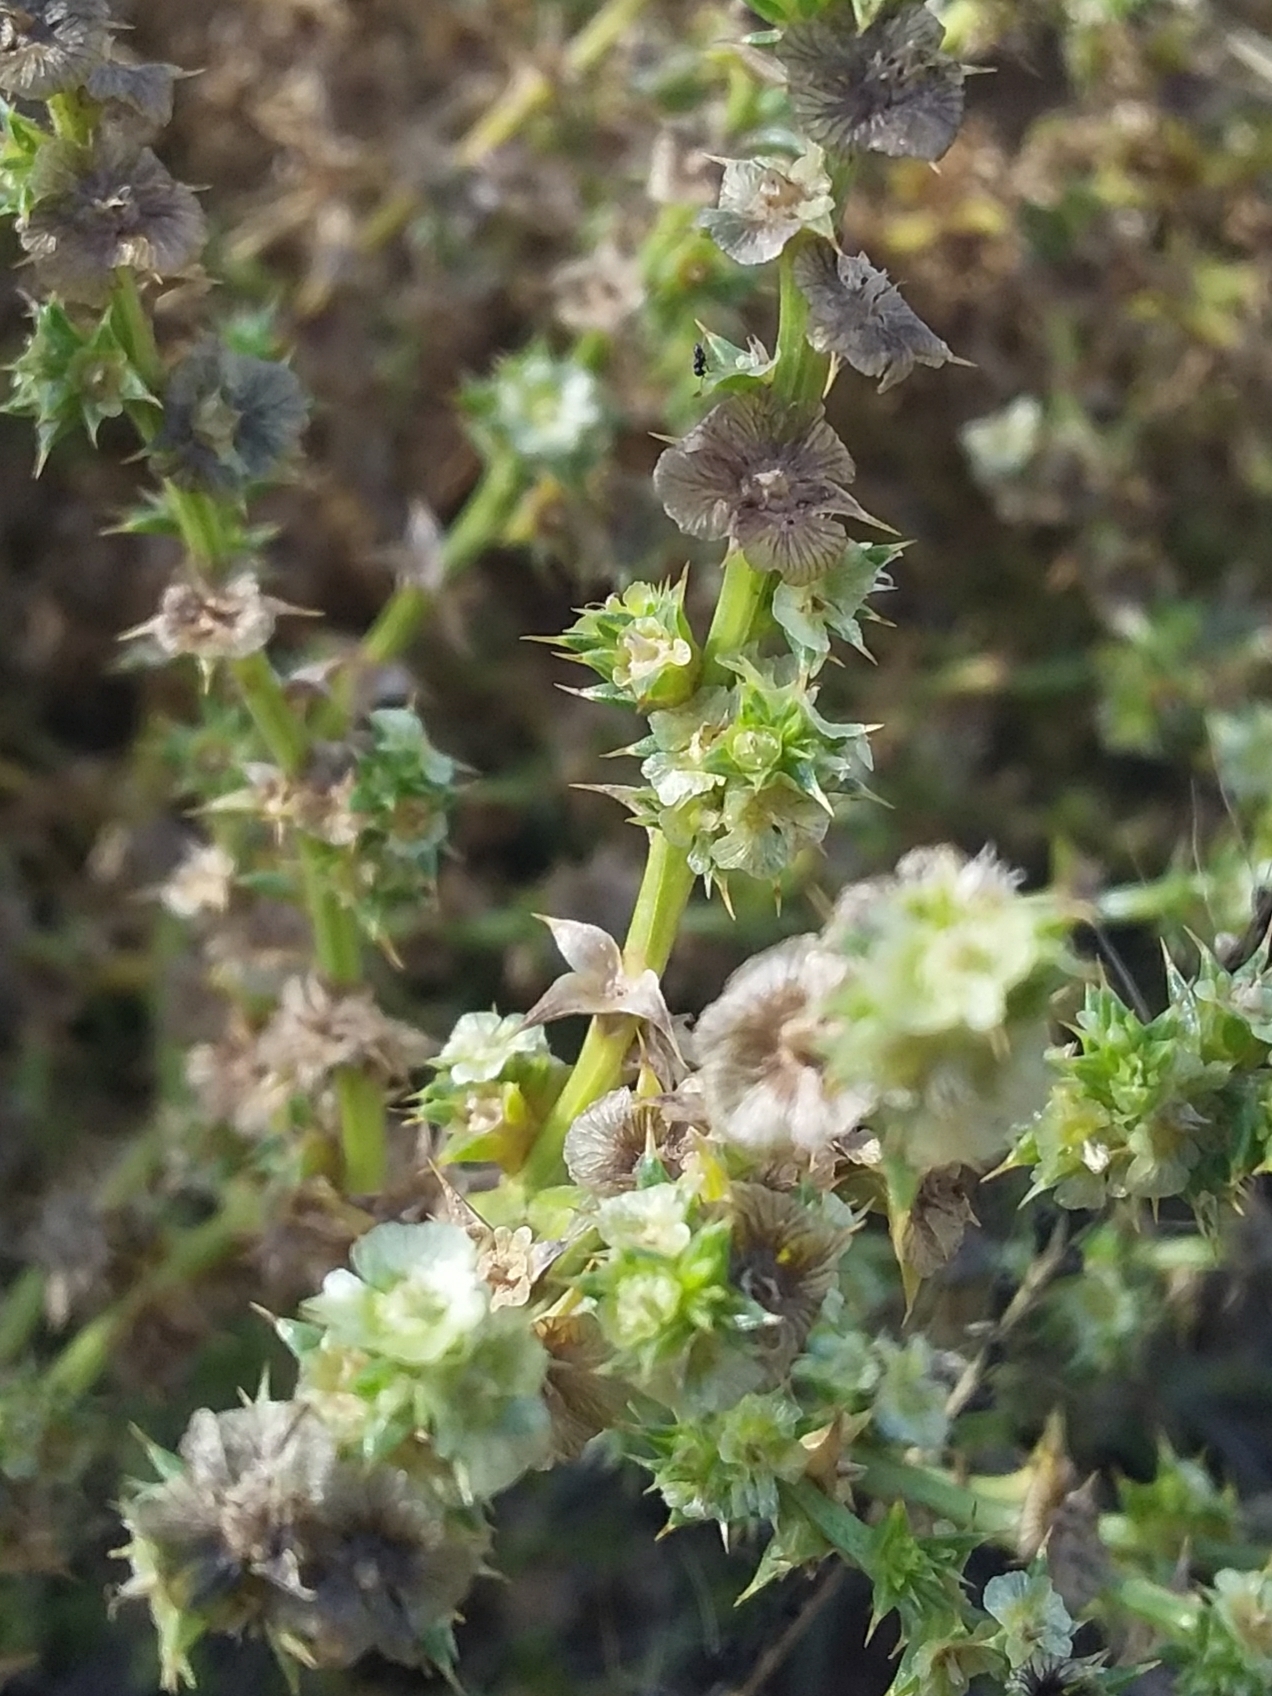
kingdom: Plantae
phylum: Tracheophyta
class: Magnoliopsida
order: Caryophyllales
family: Amaranthaceae
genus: Salsola
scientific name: Salsola australis
